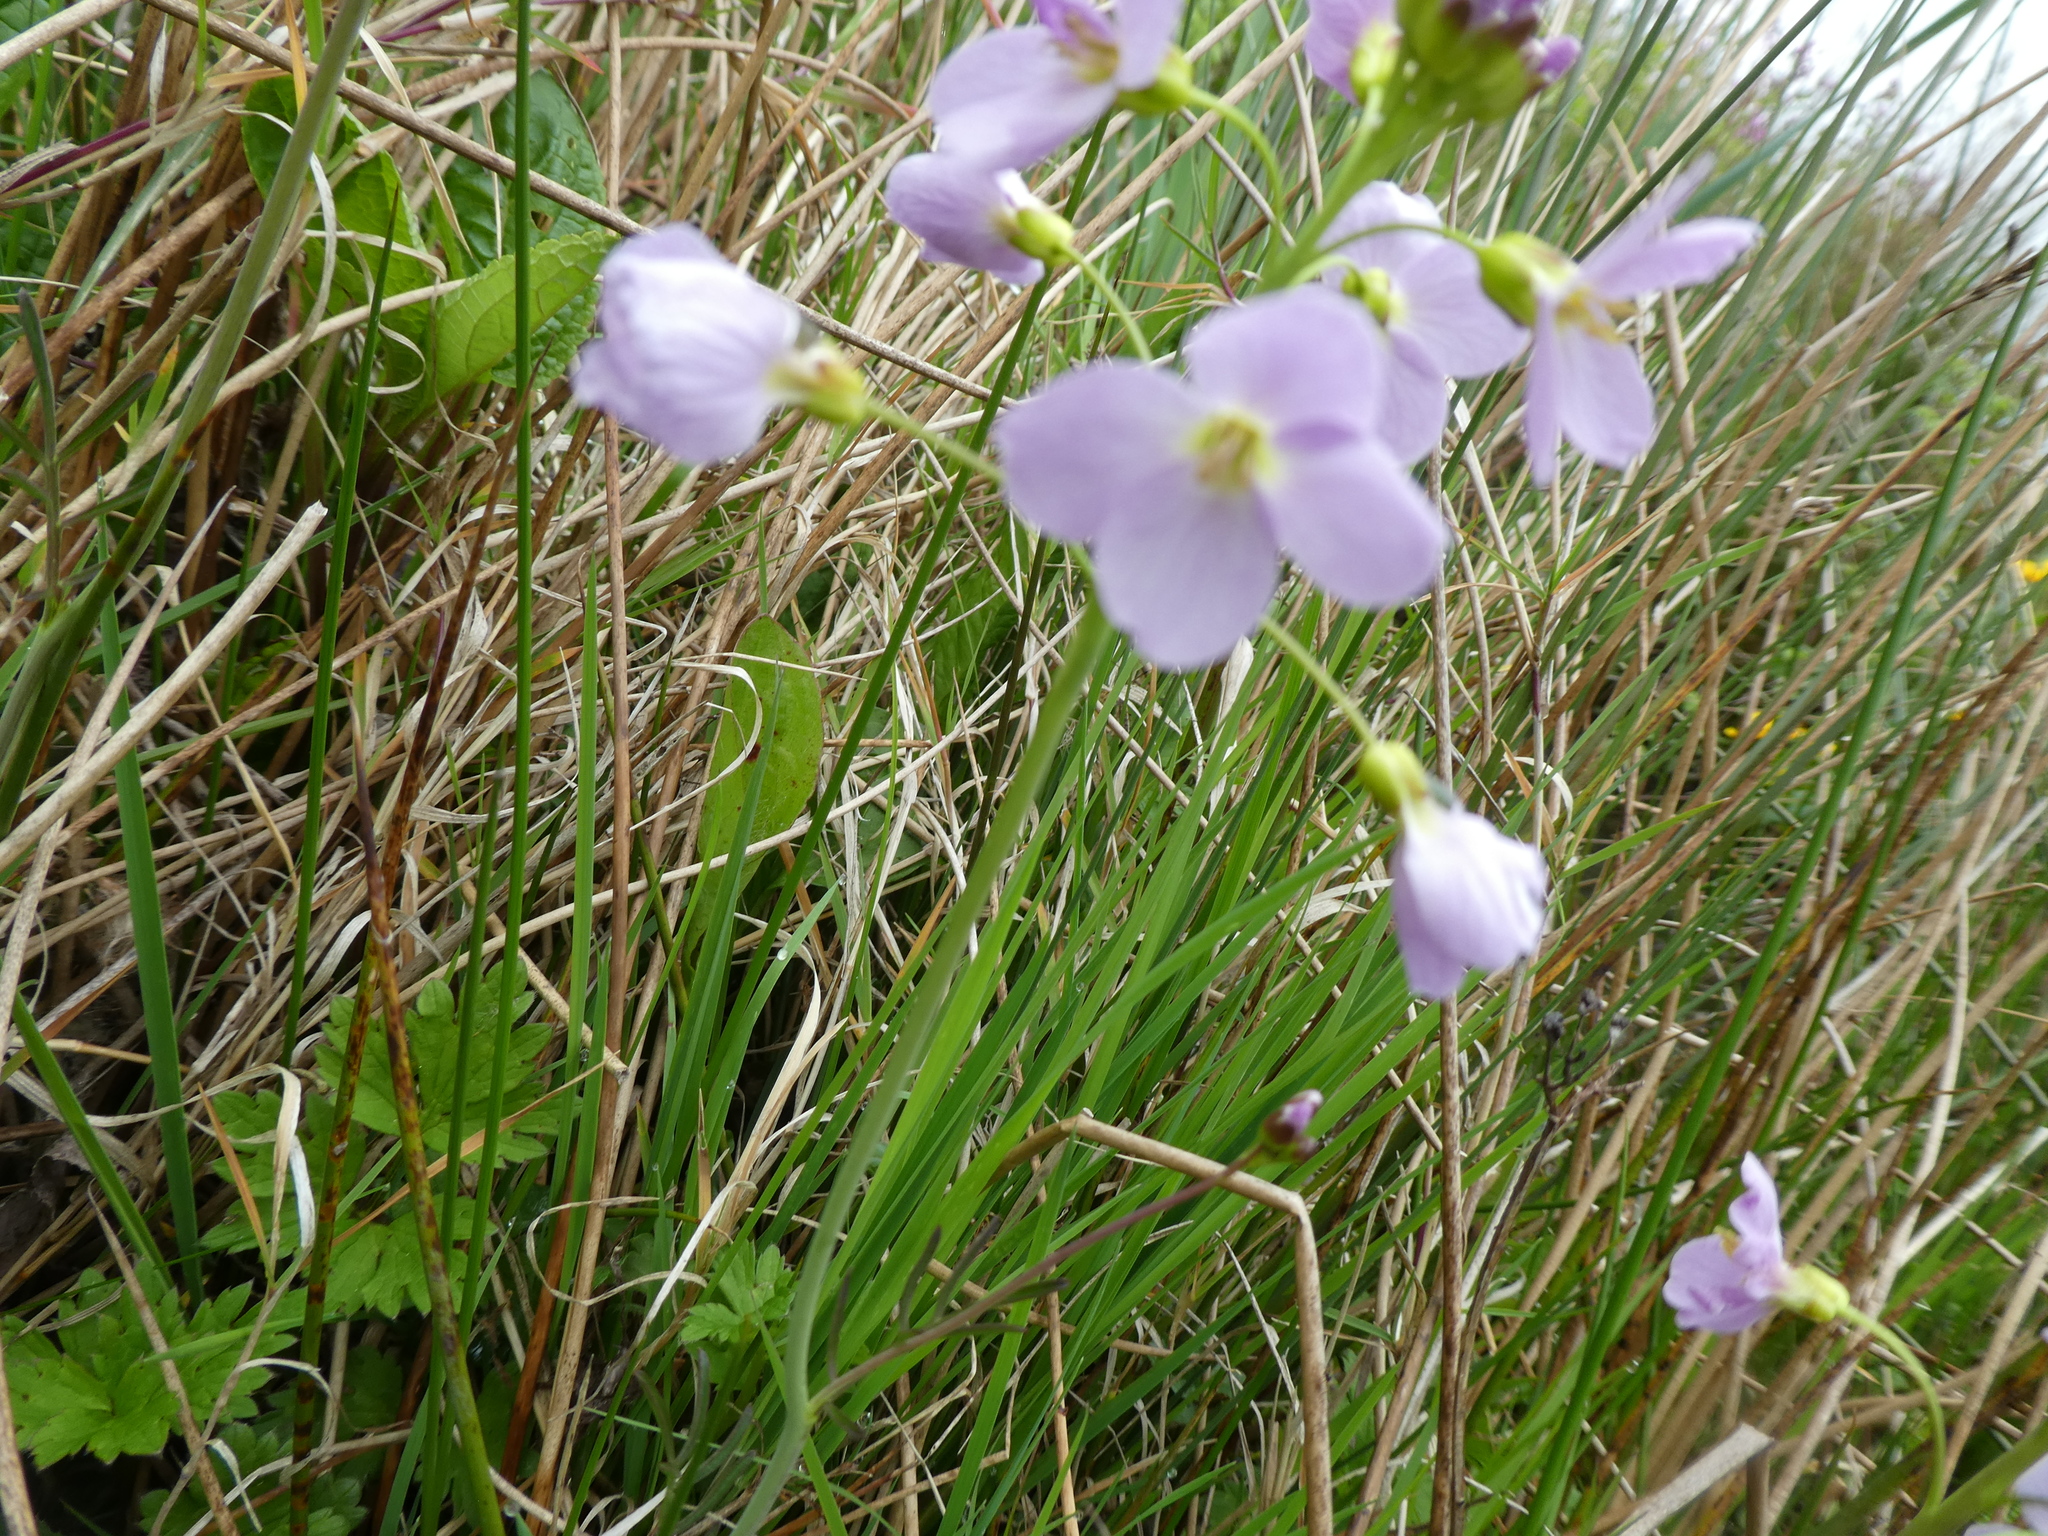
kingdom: Plantae
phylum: Tracheophyta
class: Magnoliopsida
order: Brassicales
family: Brassicaceae
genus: Cardamine
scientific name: Cardamine pratensis
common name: Cuckoo flower
